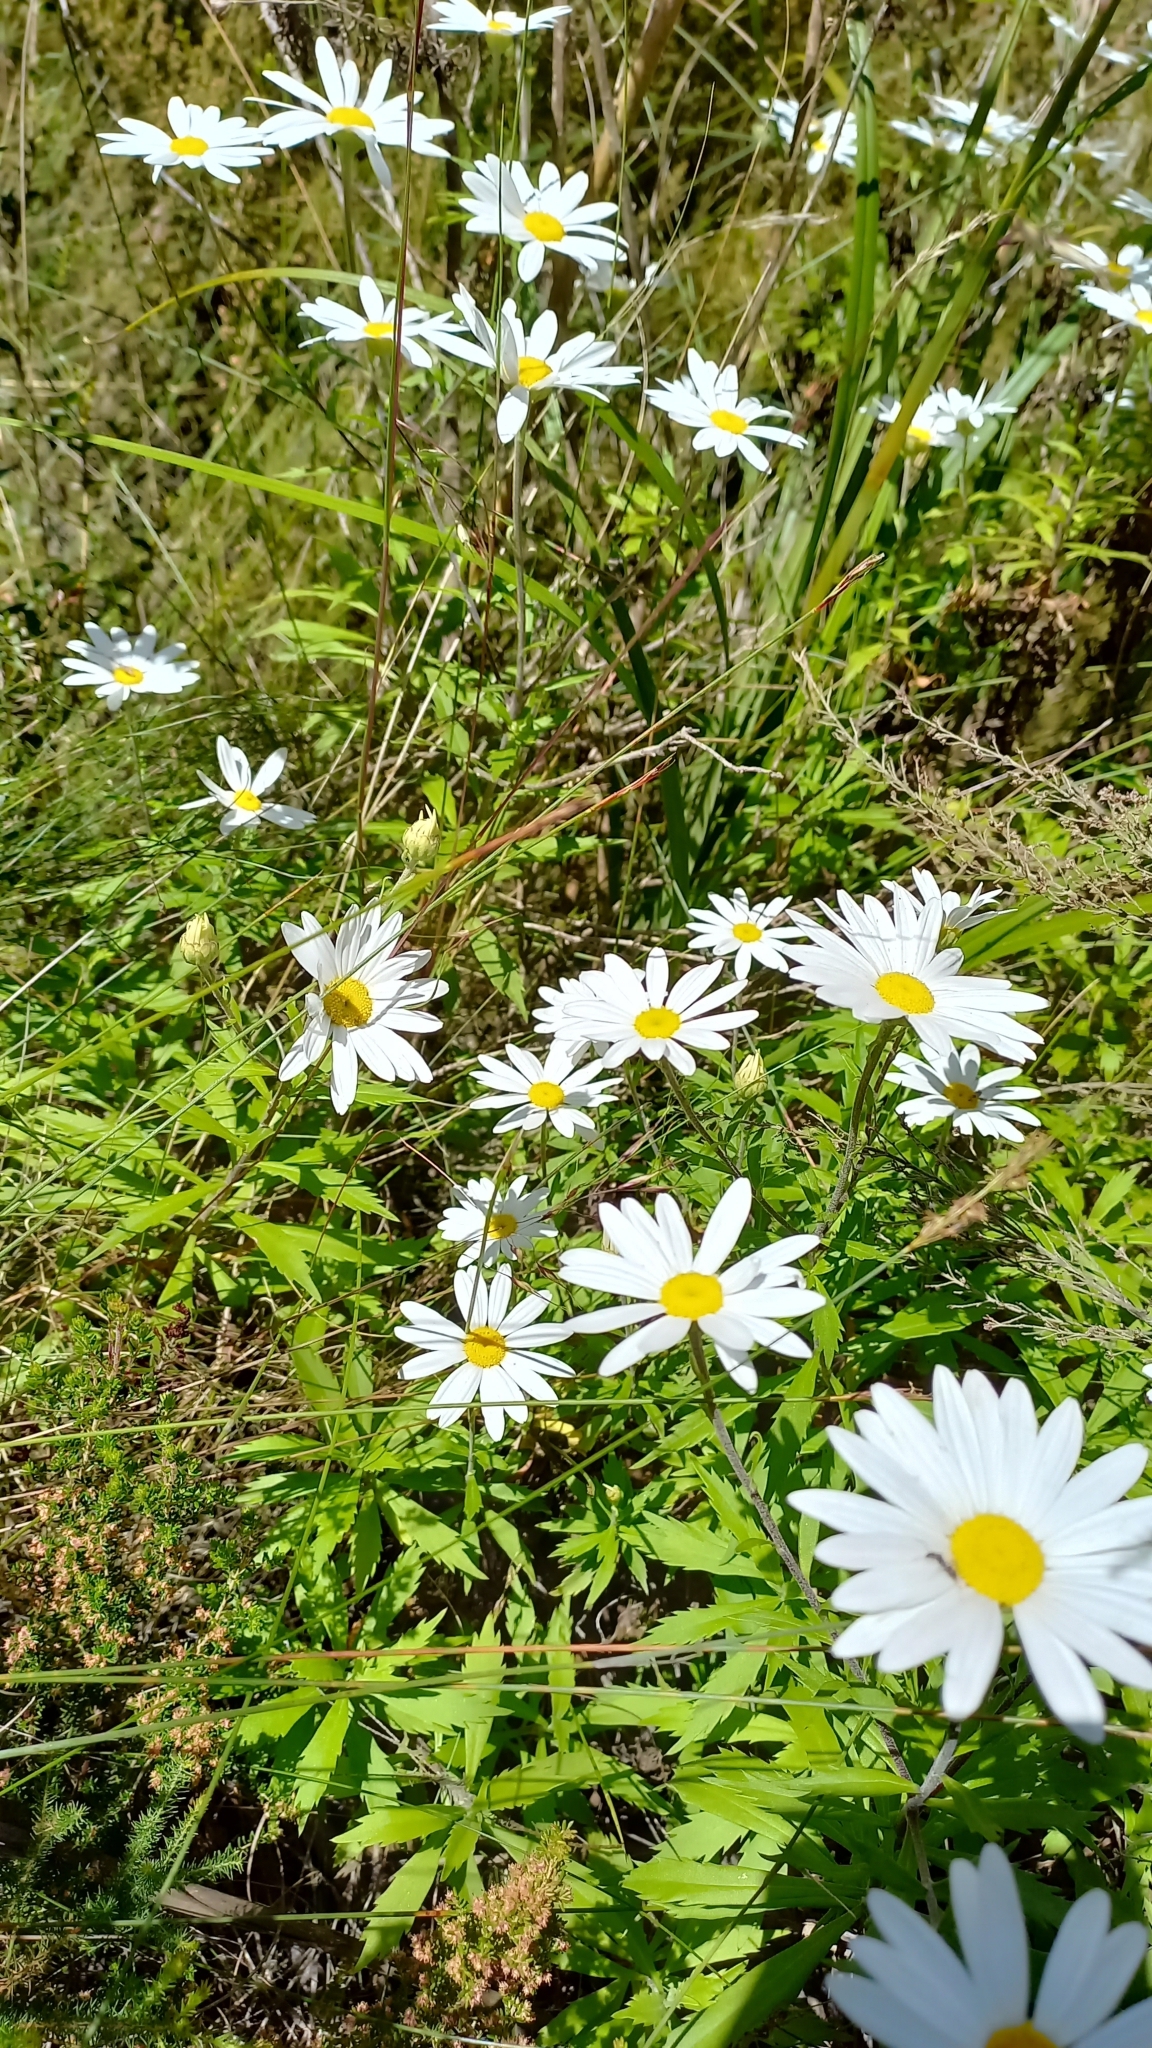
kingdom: Plantae
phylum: Tracheophyta
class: Magnoliopsida
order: Asterales
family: Asteraceae
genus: Osmitopsis
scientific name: Osmitopsis osmitoides
